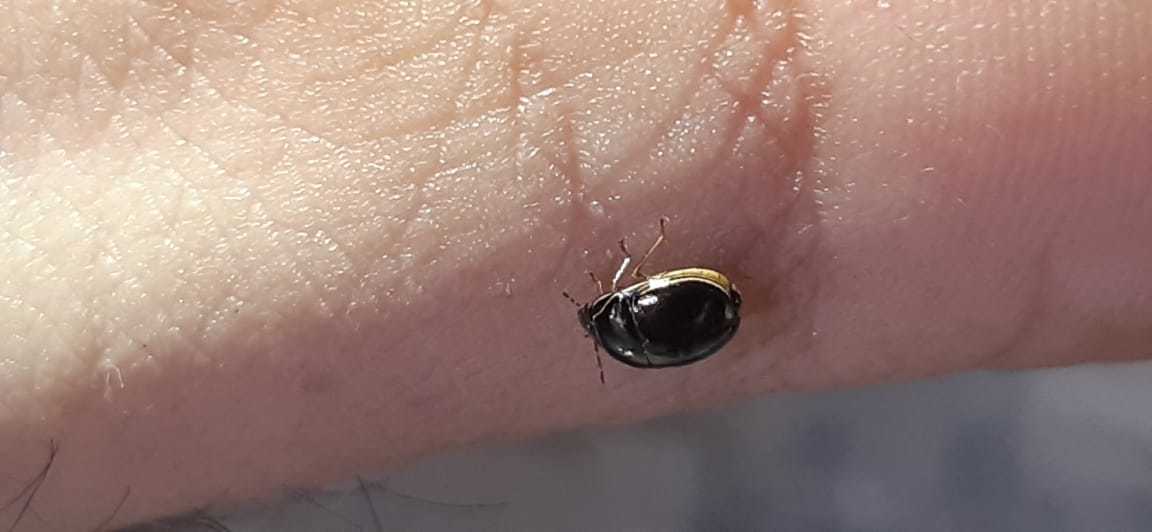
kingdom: Animalia
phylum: Arthropoda
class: Insecta
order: Hemiptera
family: Plataspidae
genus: Brachyplatys
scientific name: Brachyplatys subaeneus
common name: Black bean bug
